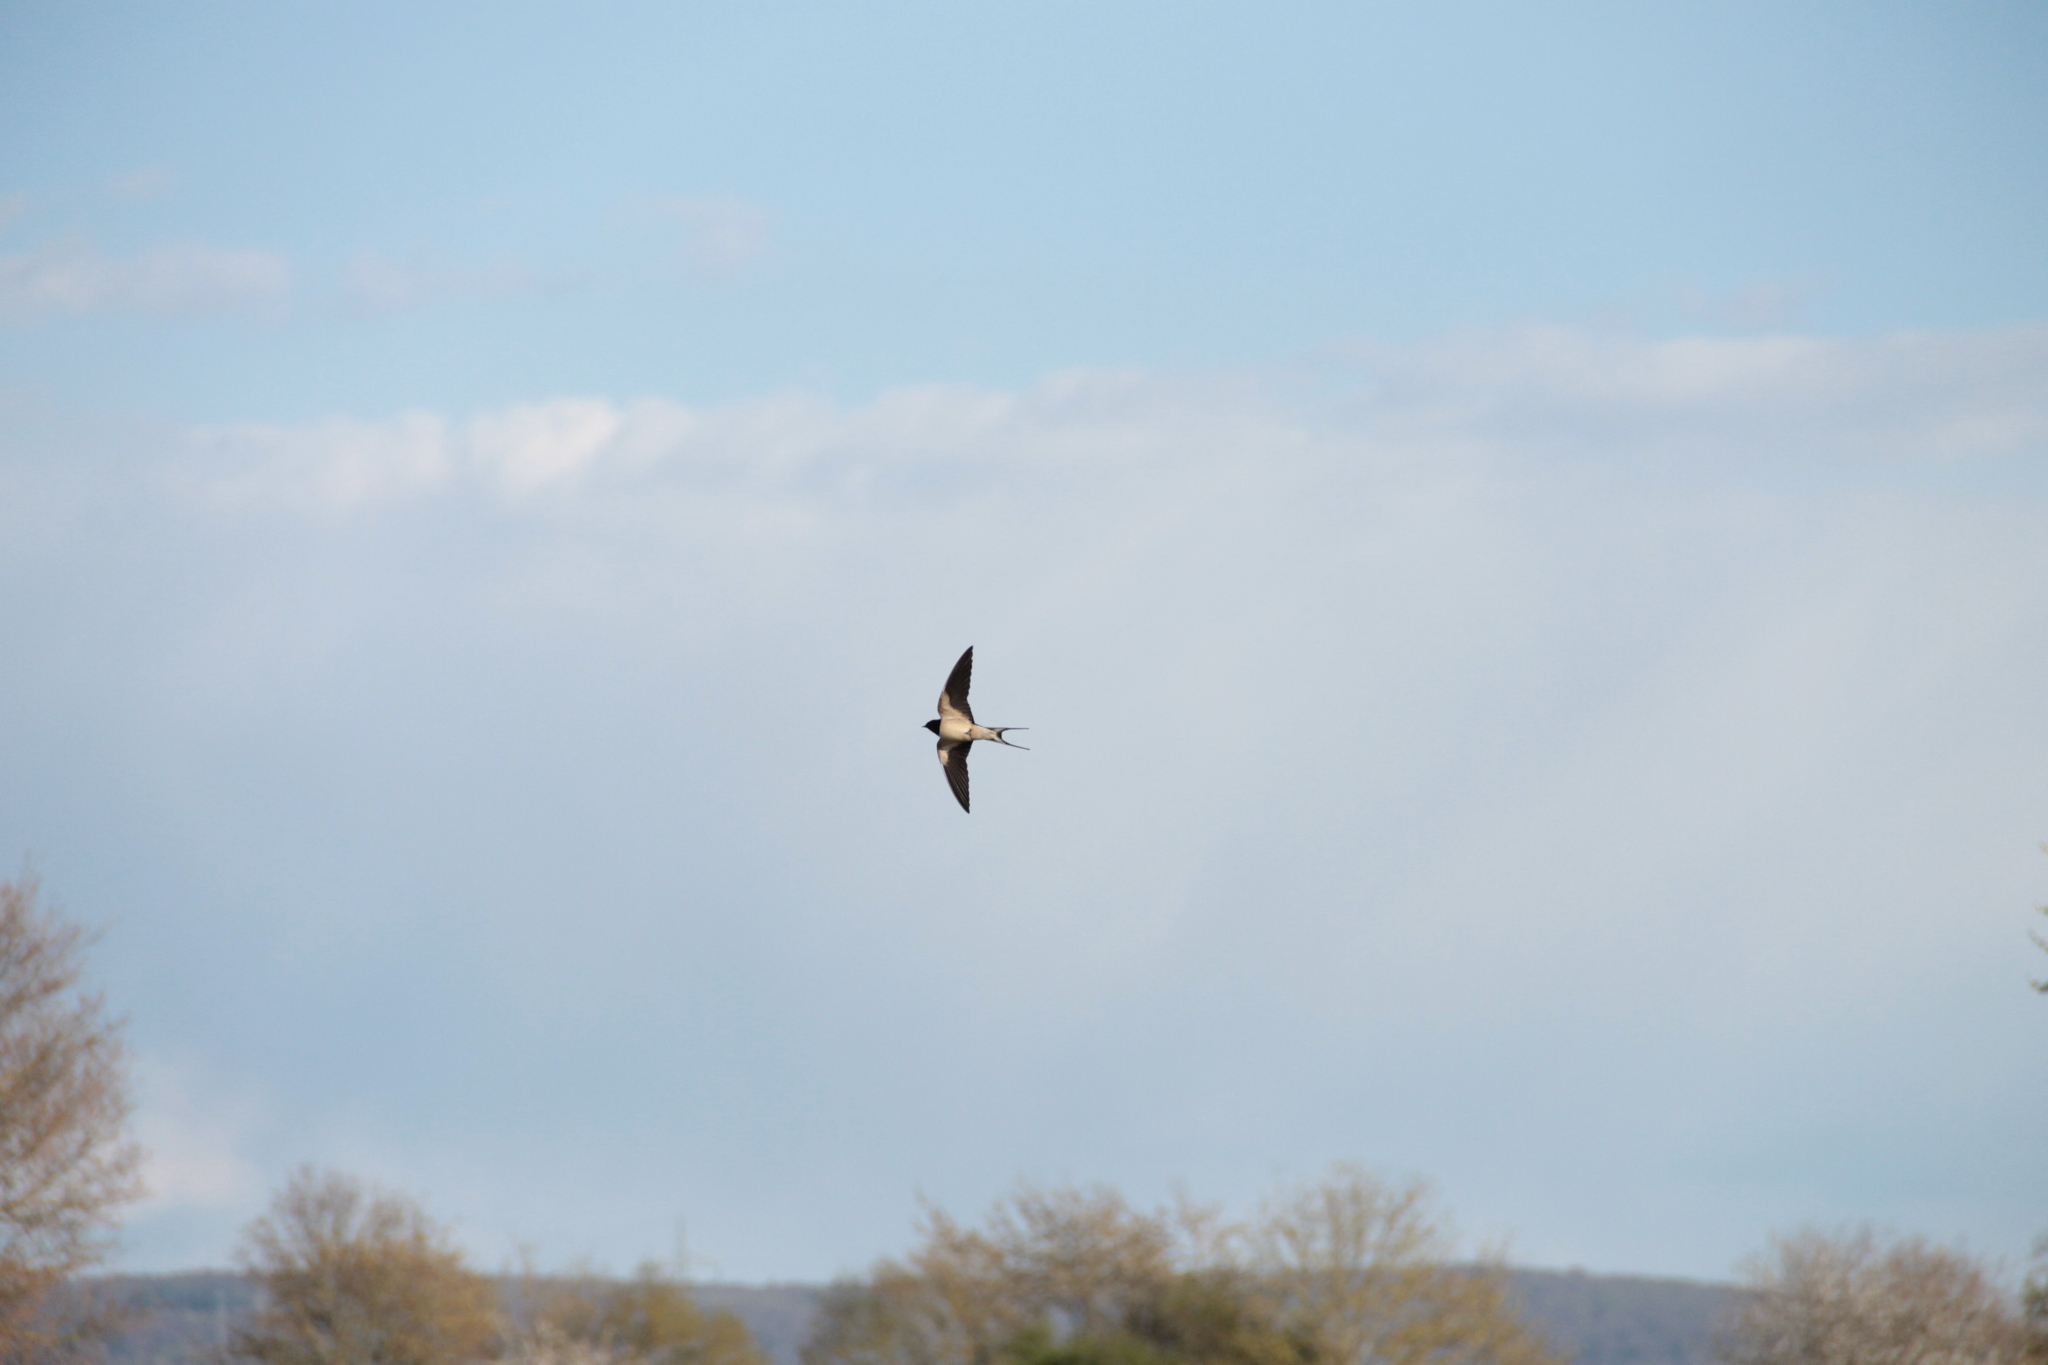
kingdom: Animalia
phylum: Chordata
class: Aves
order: Passeriformes
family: Hirundinidae
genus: Hirundo
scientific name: Hirundo rustica
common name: Barn swallow
